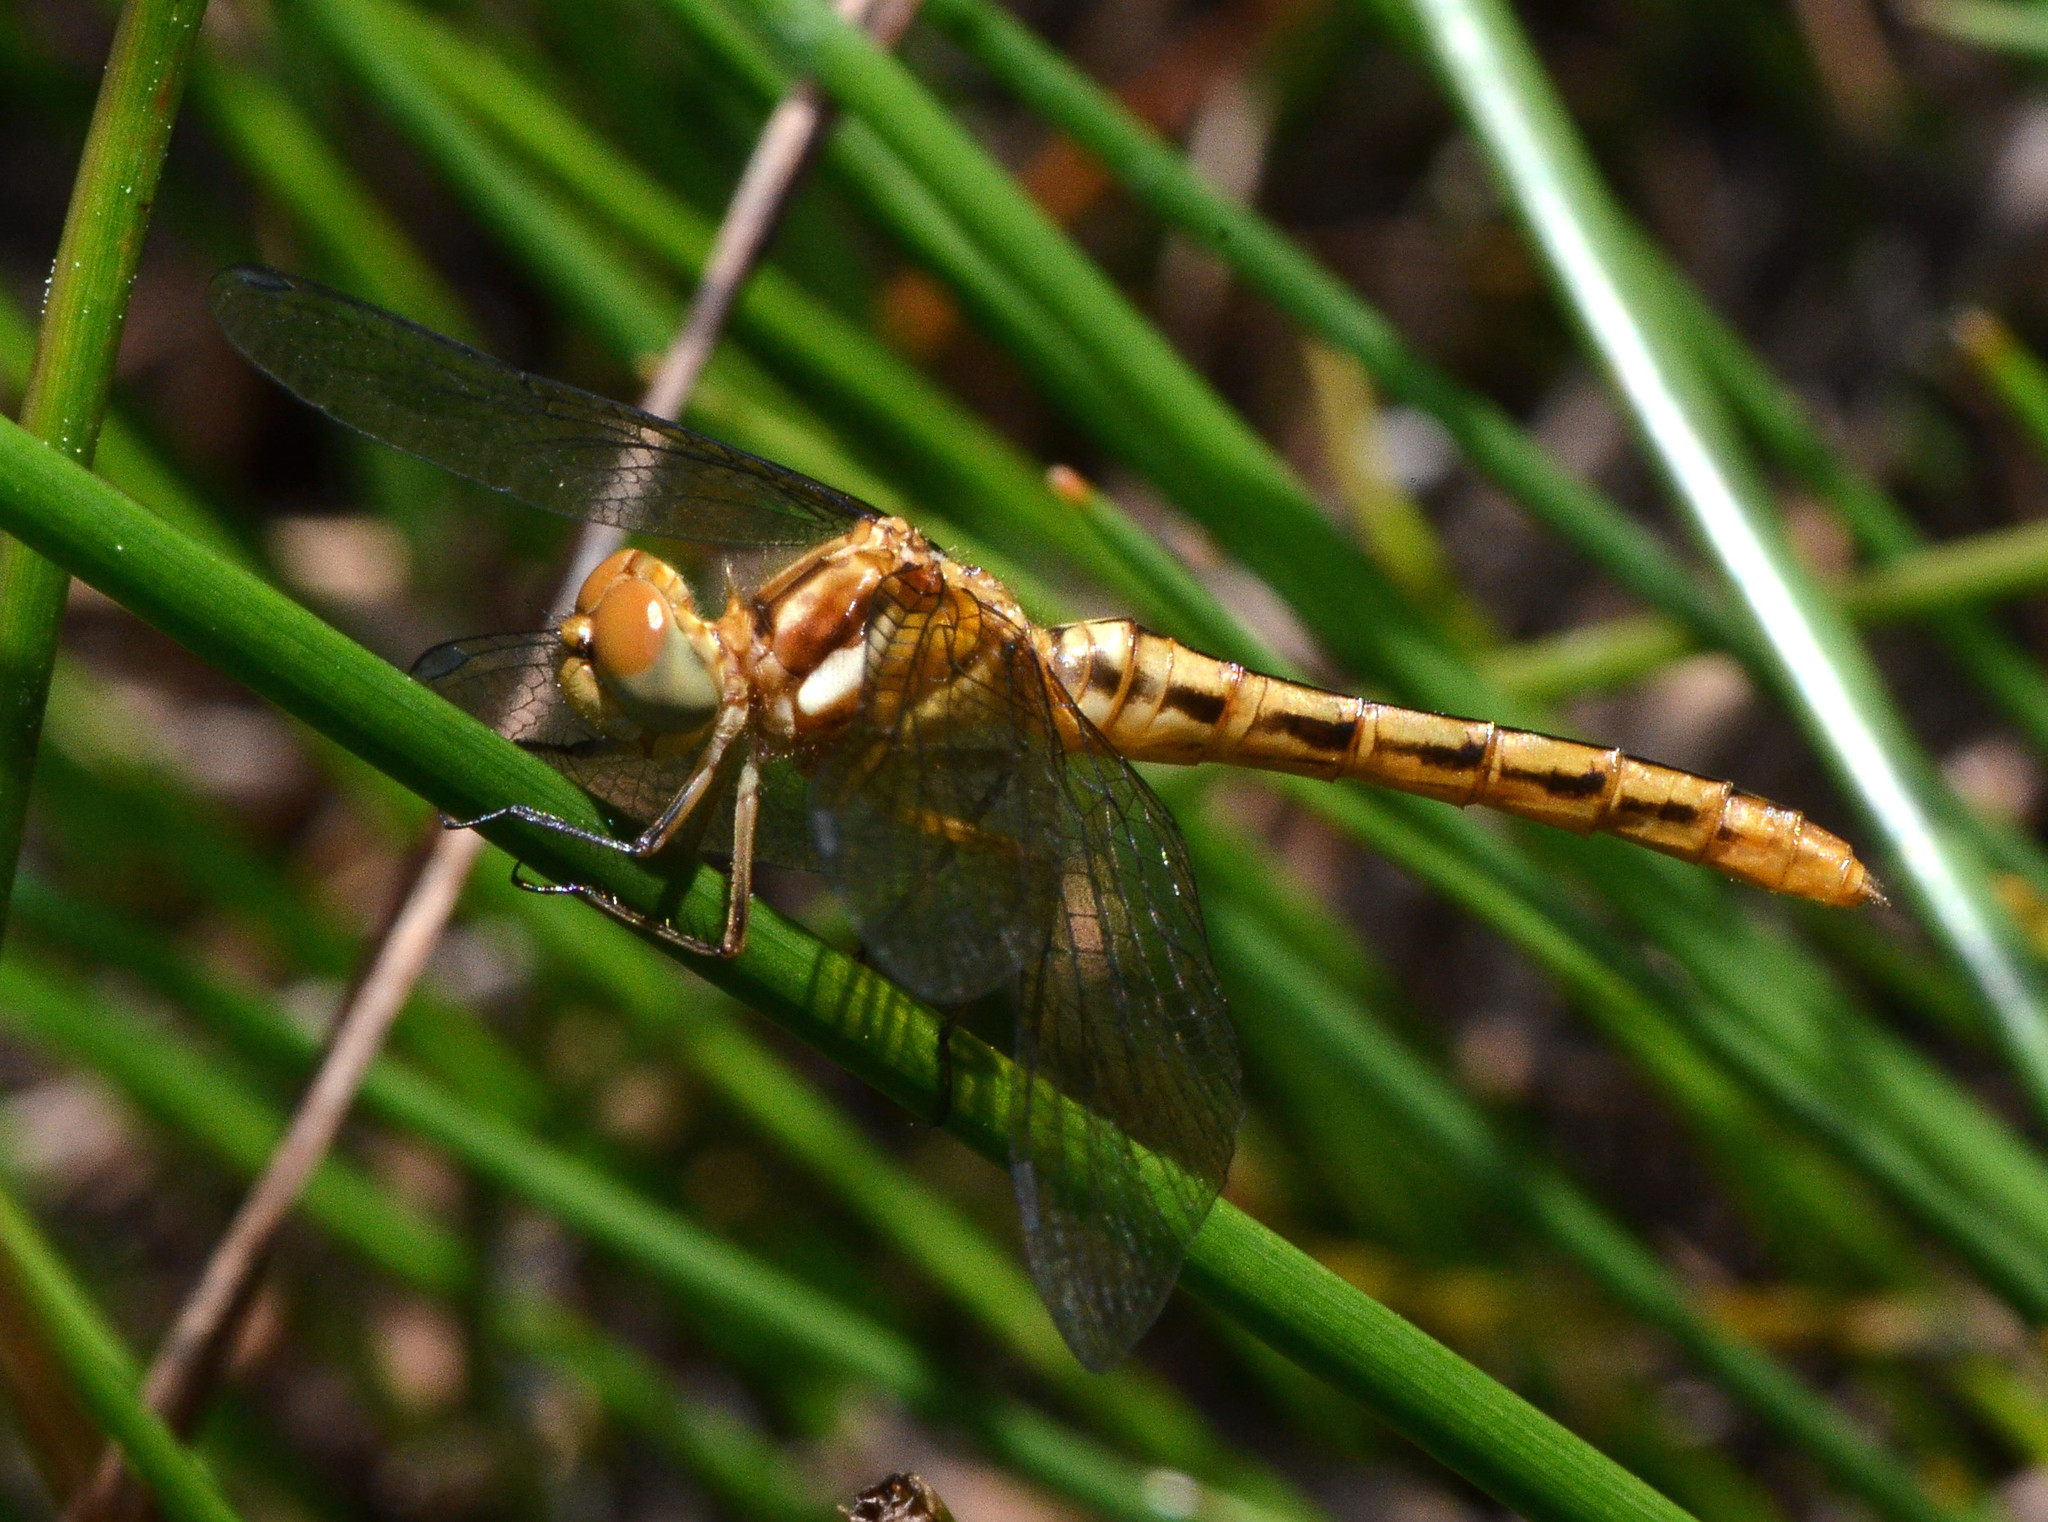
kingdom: Animalia
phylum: Arthropoda
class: Insecta
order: Odonata
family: Libellulidae
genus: Sympetrum
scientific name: Sympetrum pallipes
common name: Striped meadowhawk
